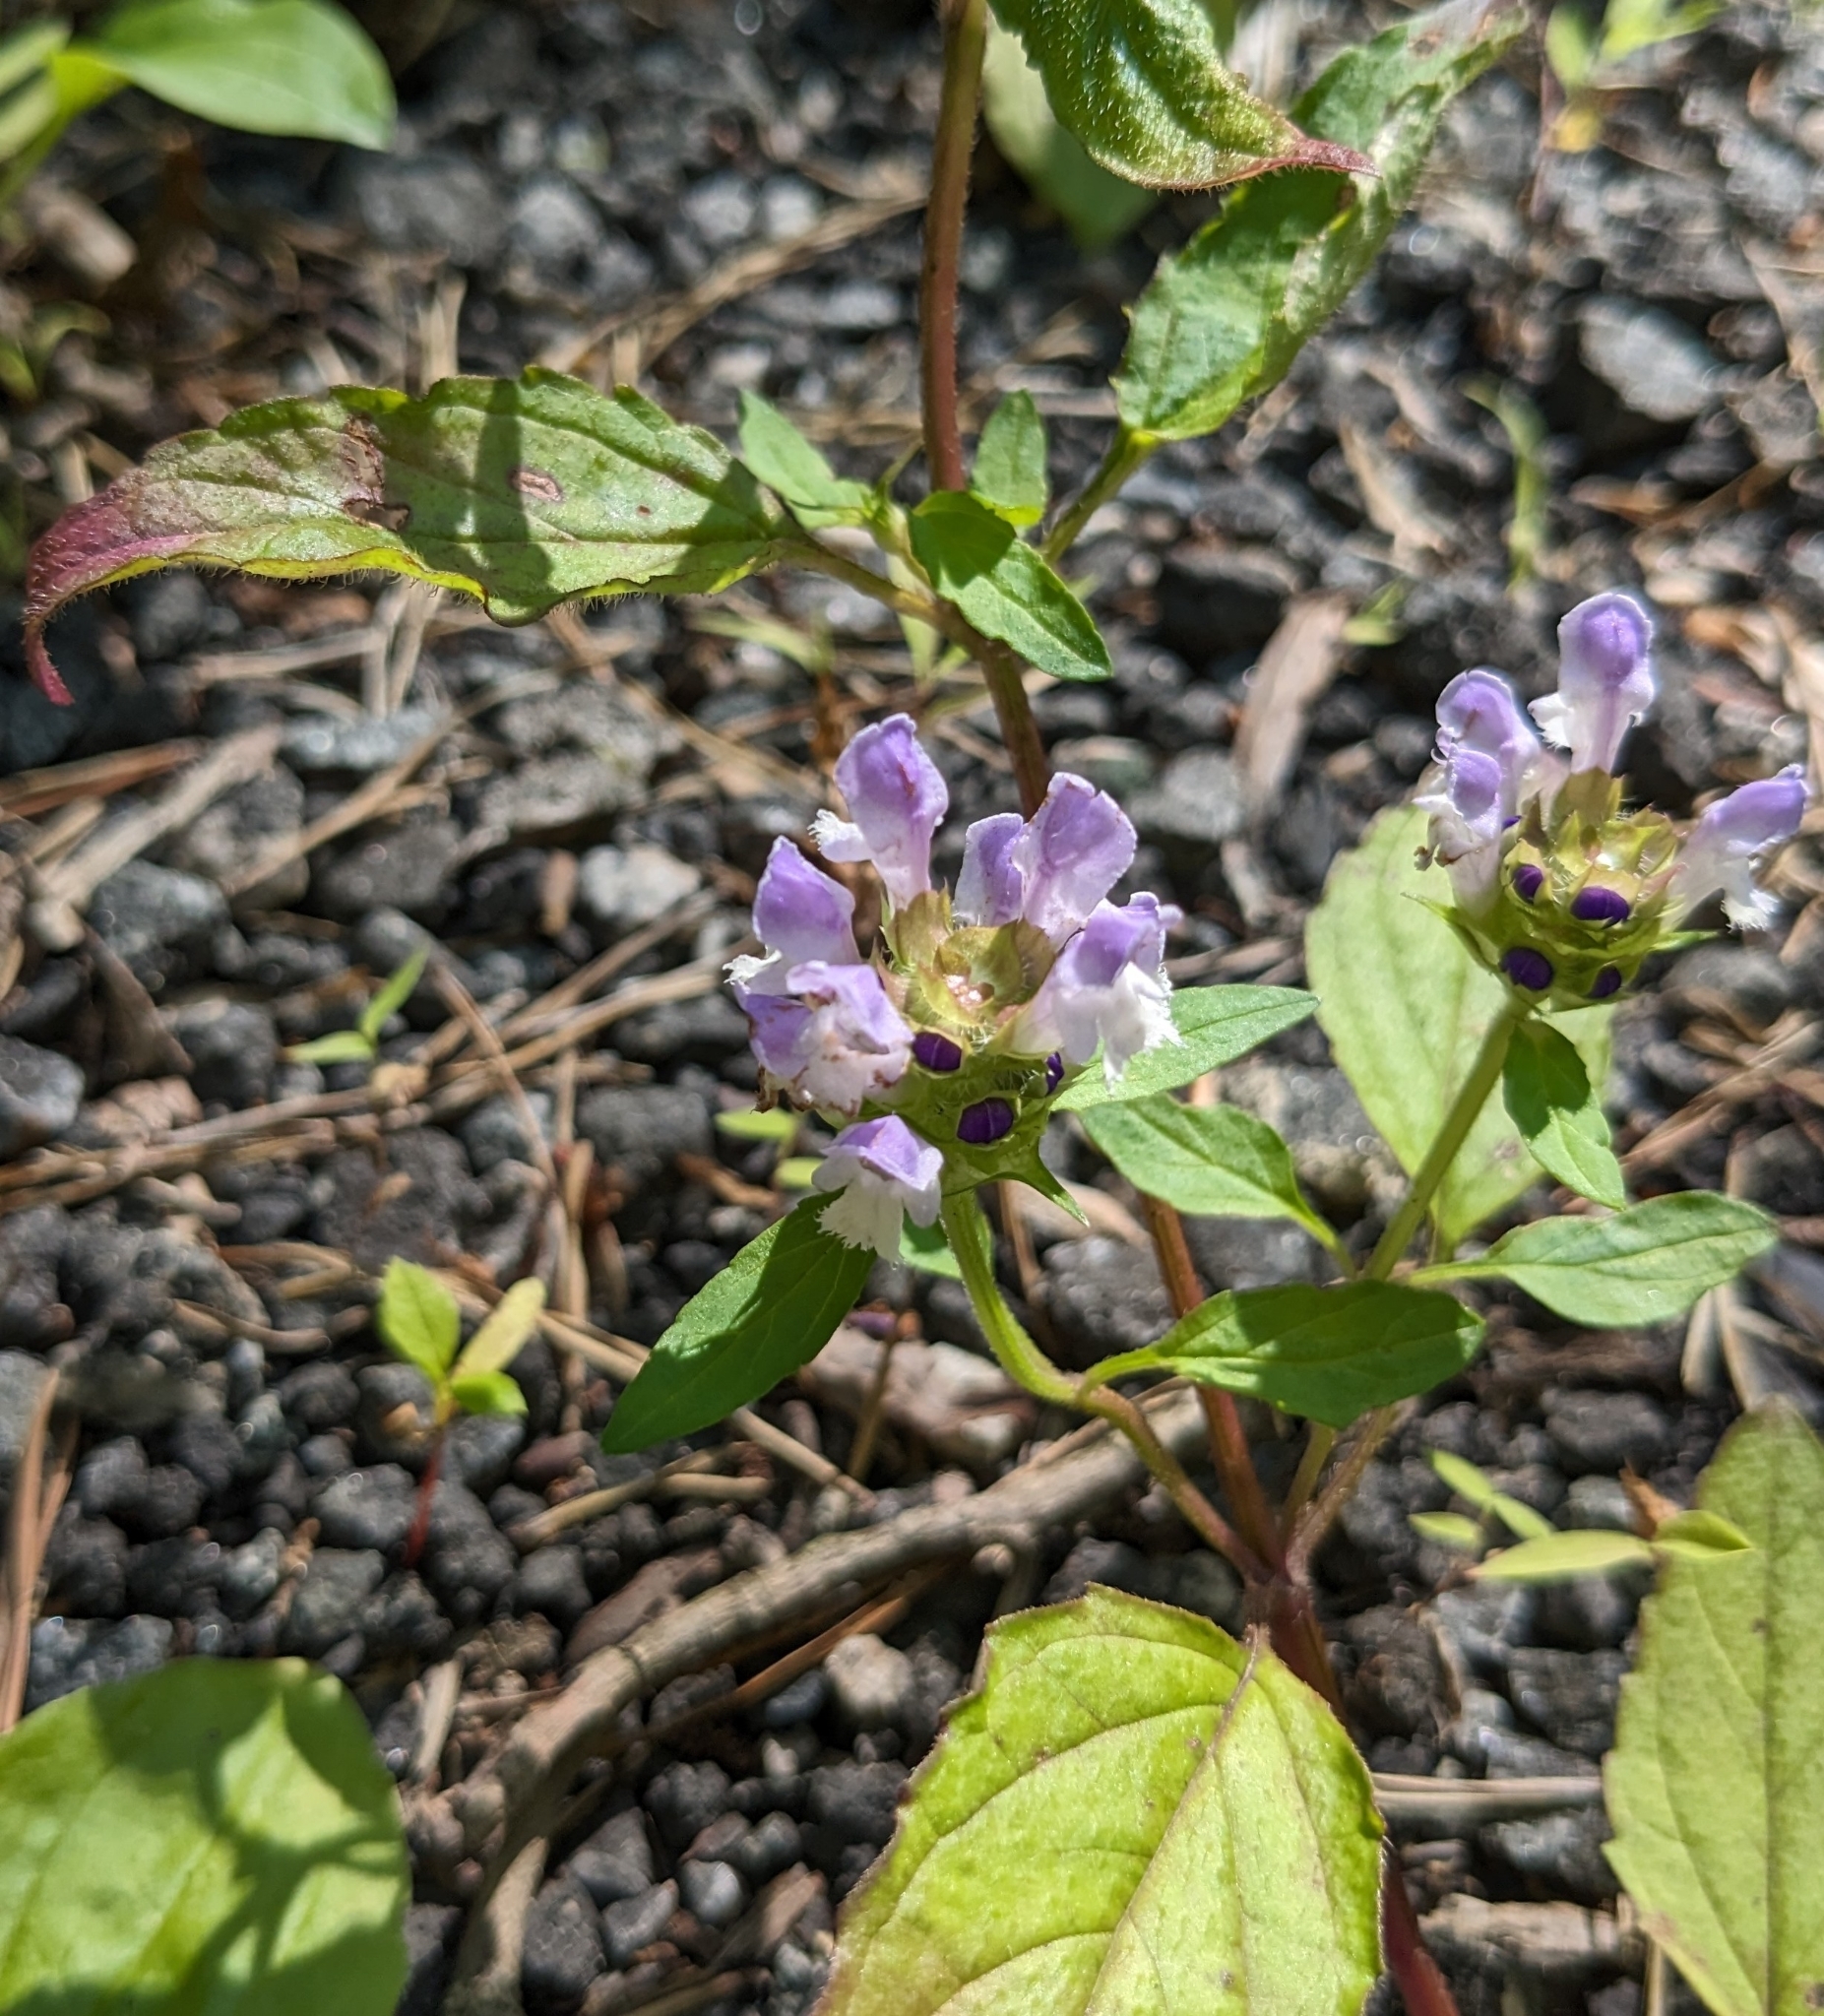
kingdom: Plantae
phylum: Tracheophyta
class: Magnoliopsida
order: Lamiales
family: Lamiaceae
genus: Prunella
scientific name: Prunella vulgaris
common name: Heal-all
